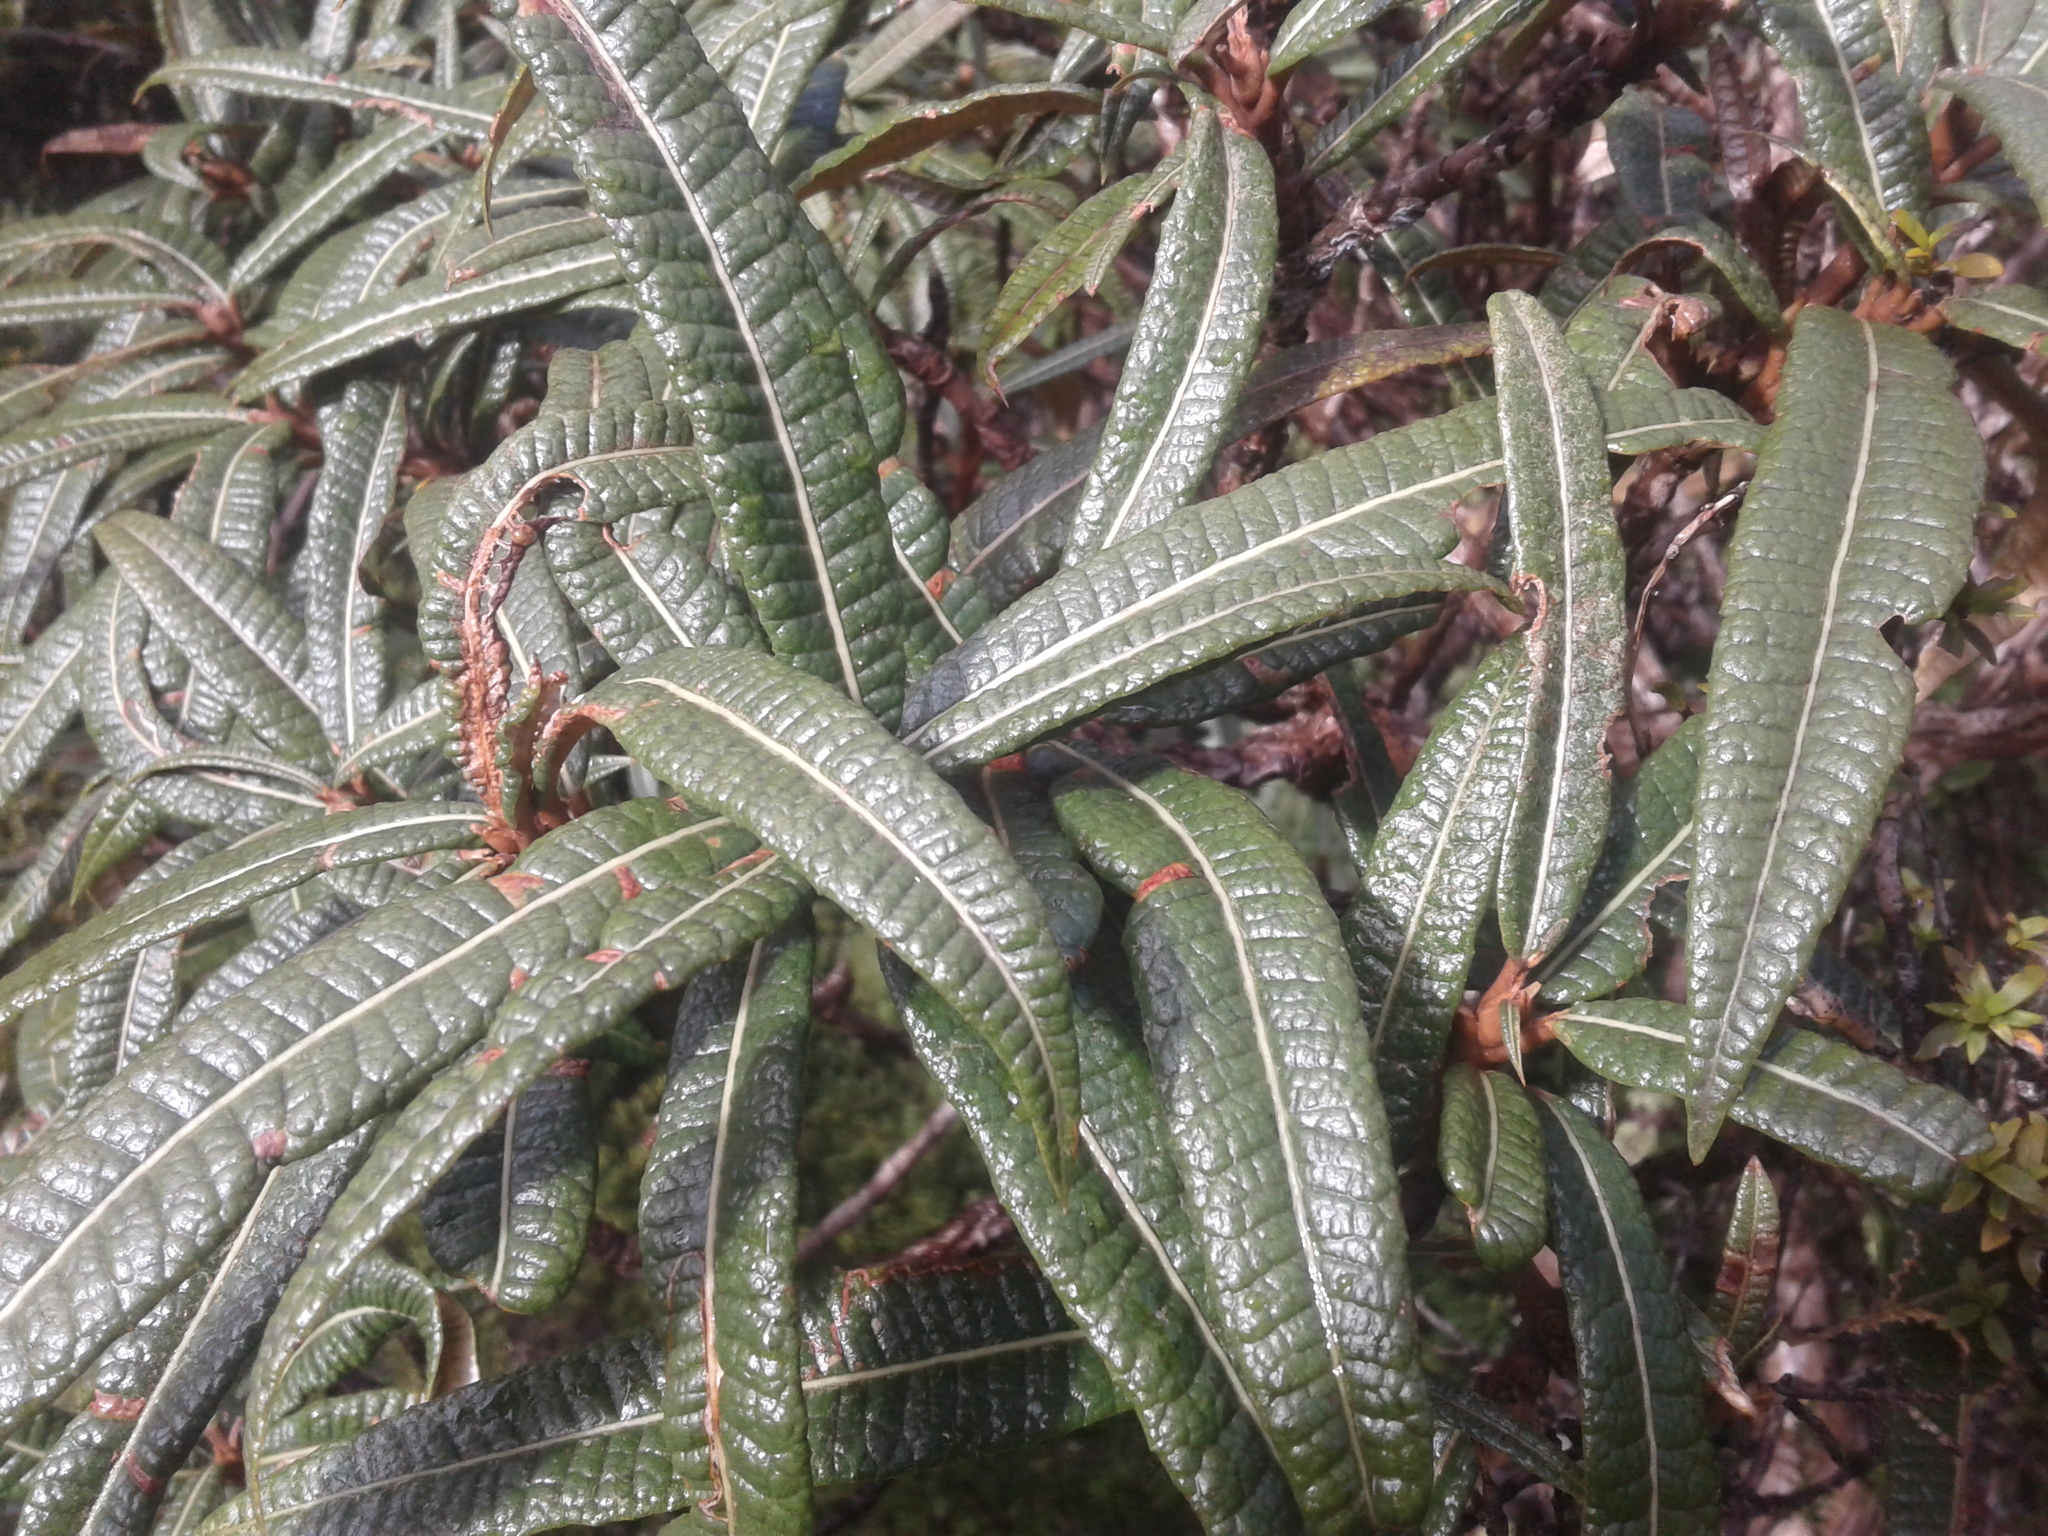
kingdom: Plantae
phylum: Tracheophyta
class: Magnoliopsida
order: Asterales
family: Asteraceae
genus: Olearia
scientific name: Olearia lacunosa
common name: Lancewood tree daisy
